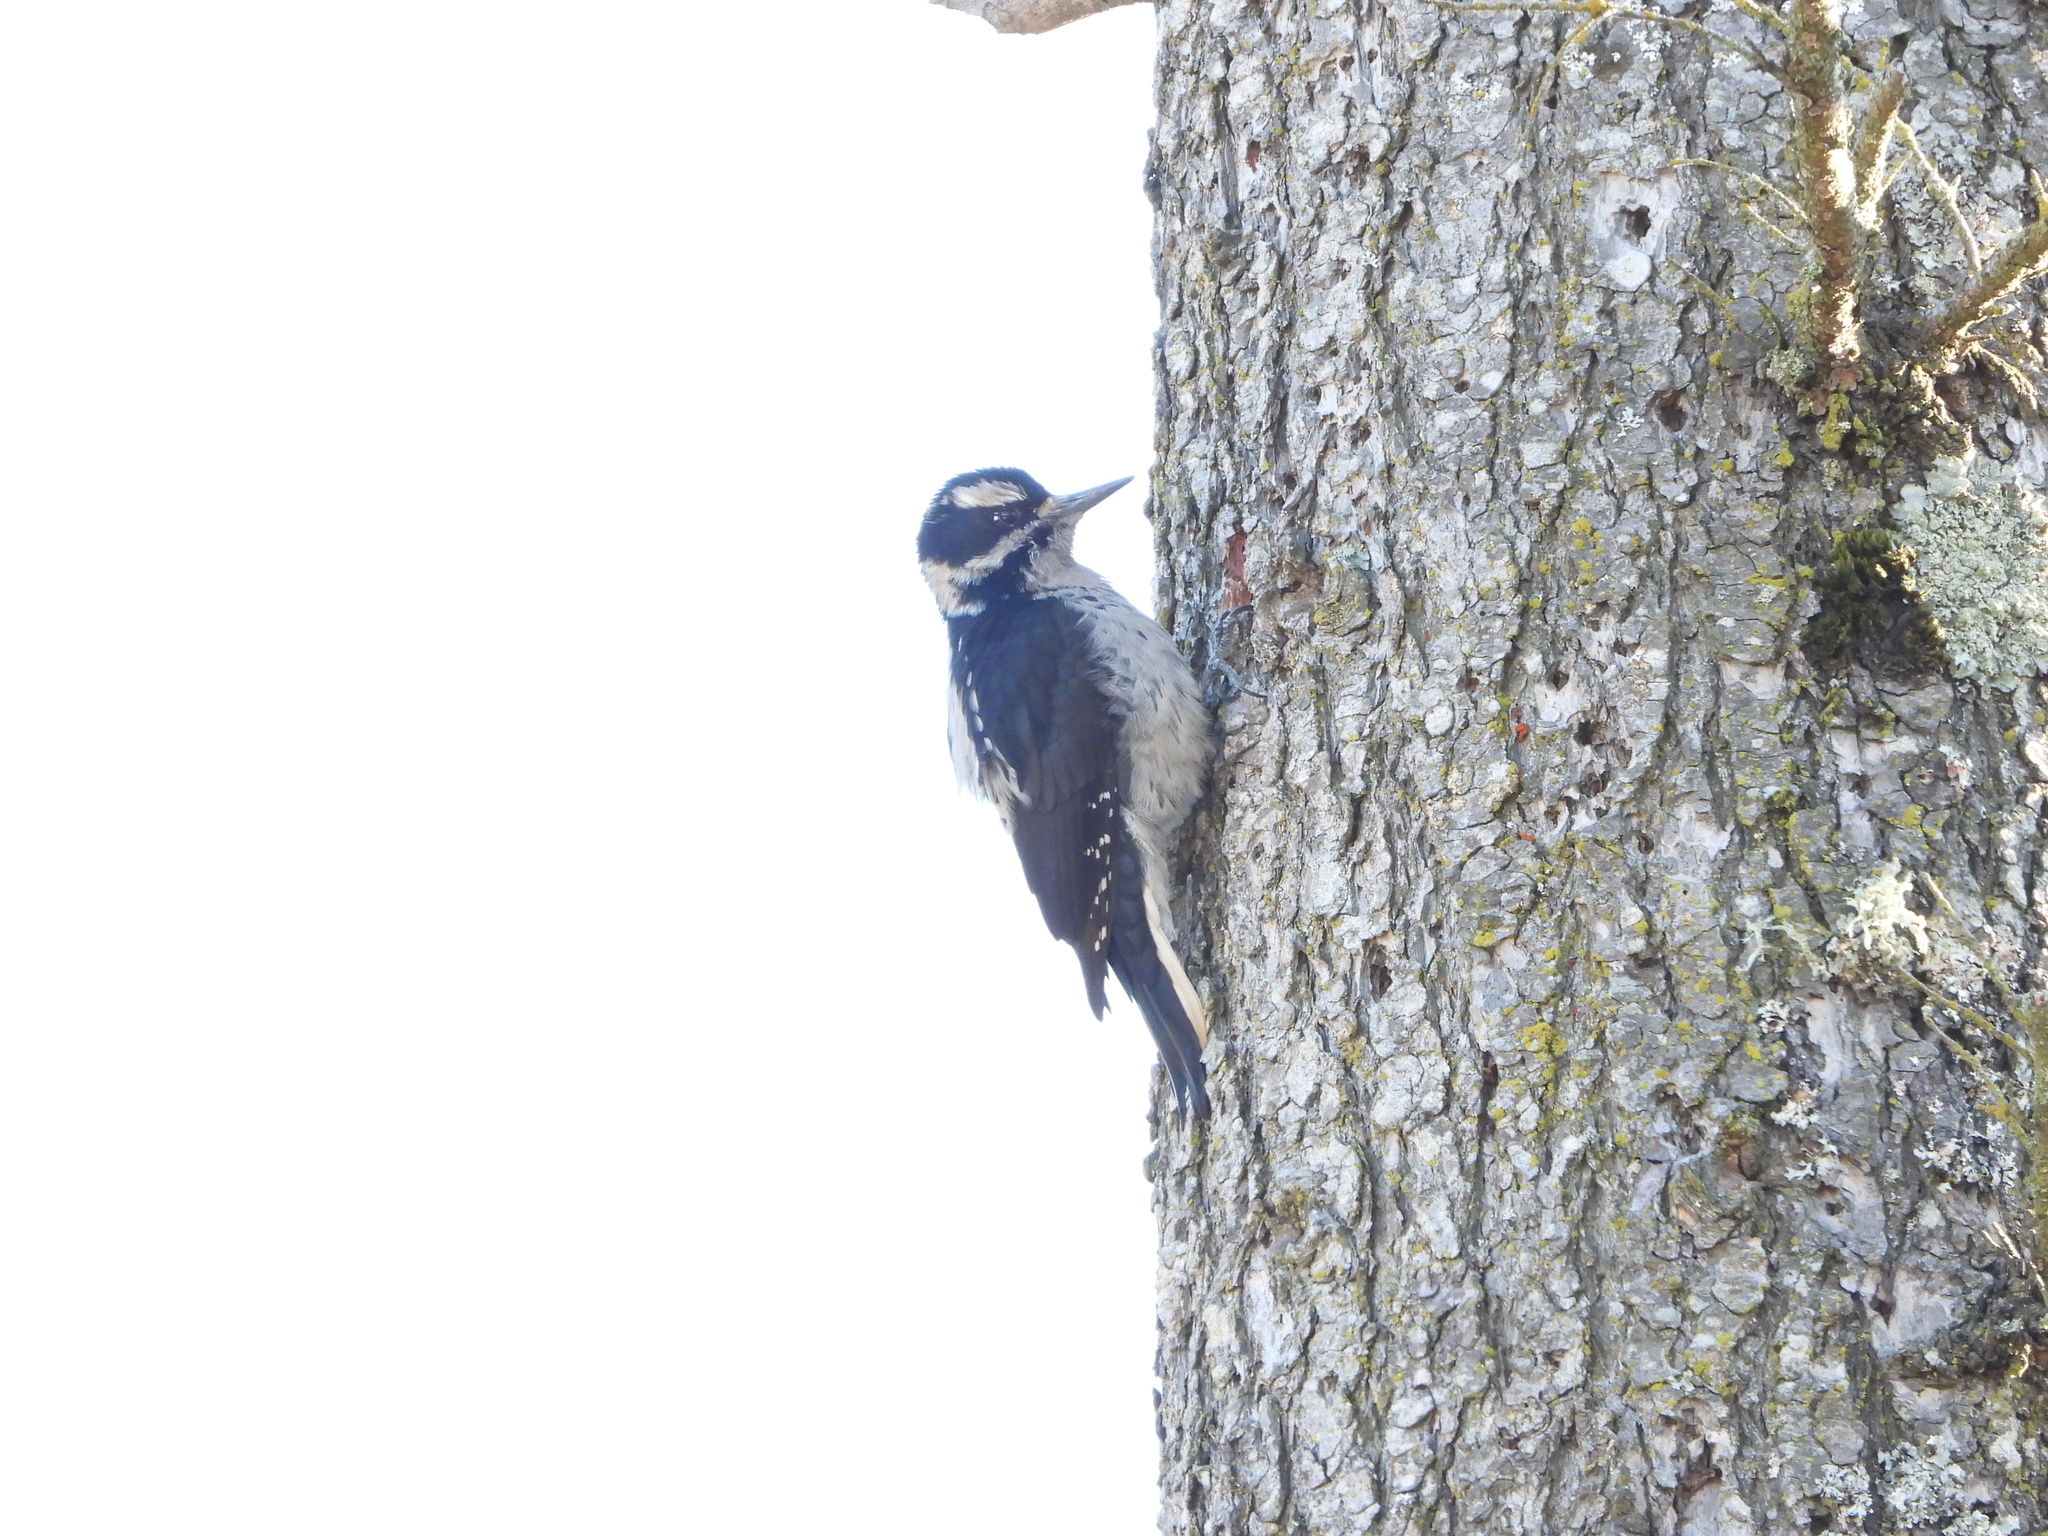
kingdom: Animalia
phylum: Chordata
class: Aves
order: Piciformes
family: Picidae
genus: Leuconotopicus
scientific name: Leuconotopicus villosus
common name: Hairy woodpecker
